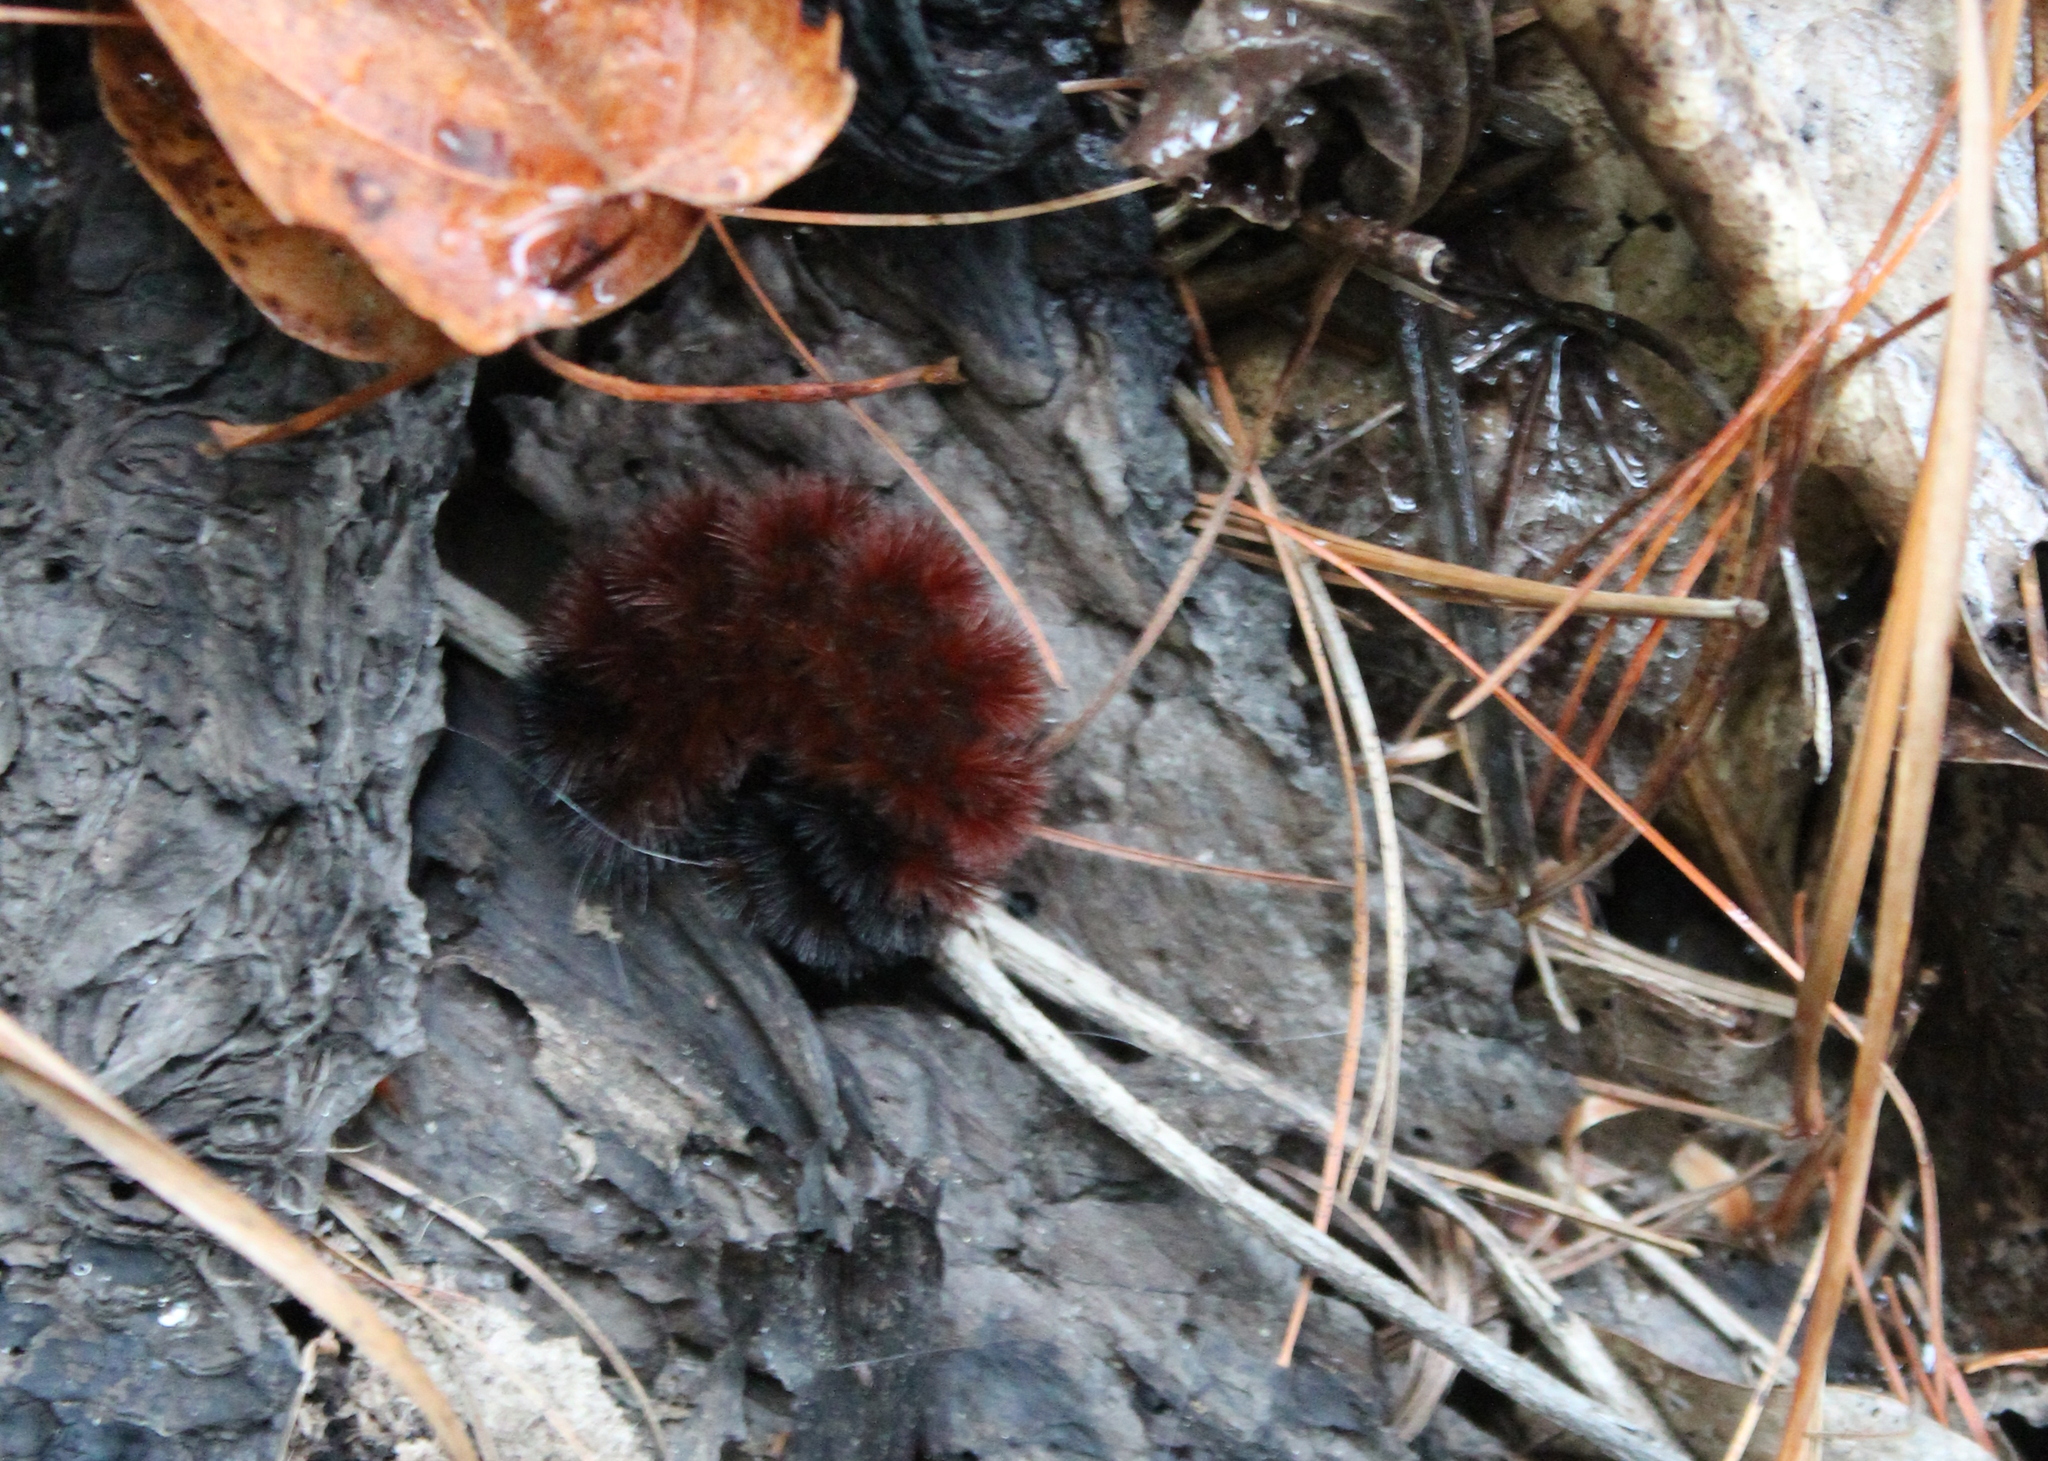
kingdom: Animalia
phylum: Arthropoda
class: Insecta
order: Lepidoptera
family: Erebidae
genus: Pyrrharctia
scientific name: Pyrrharctia isabella
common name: Isabella tiger moth
